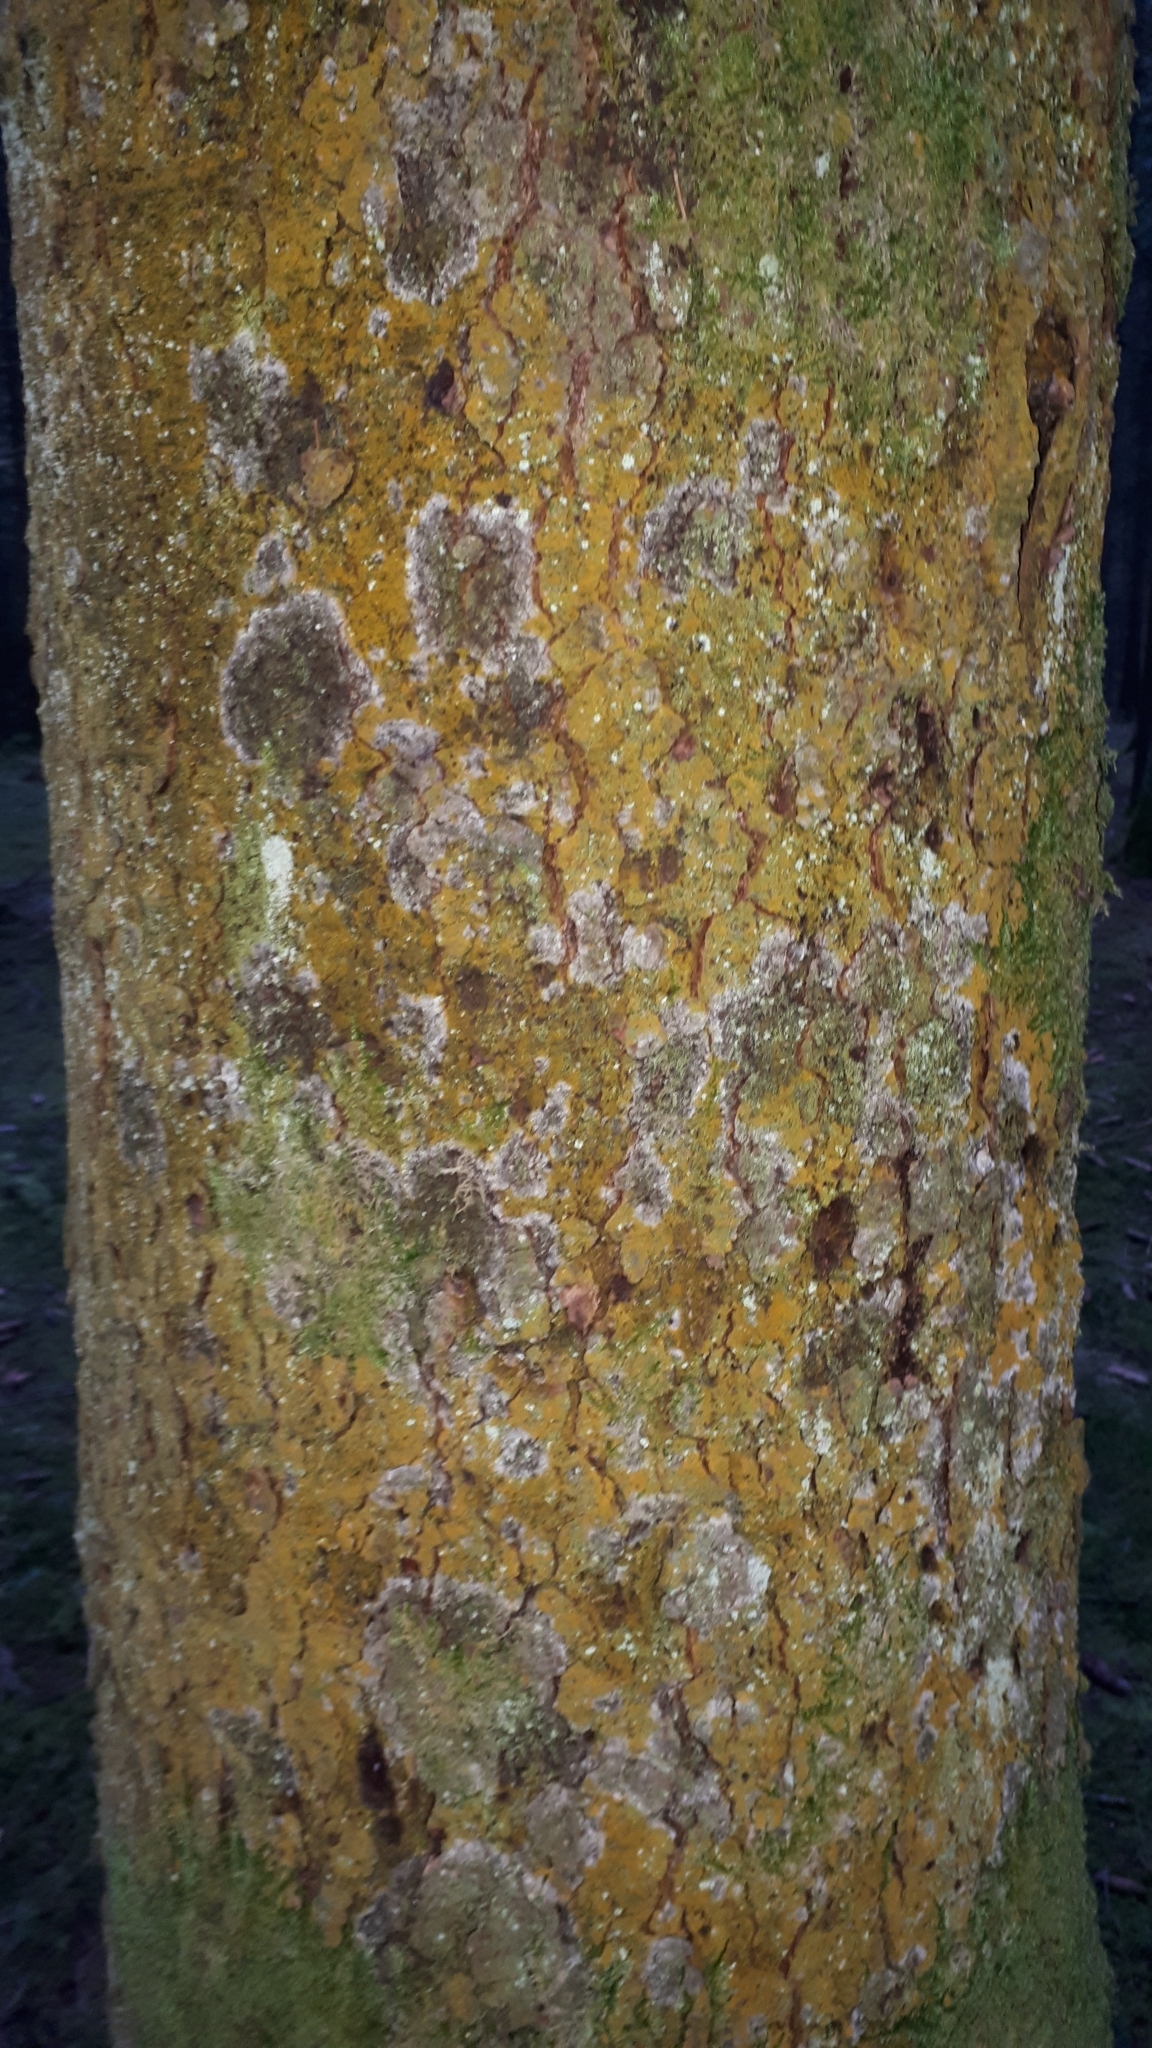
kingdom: Fungi
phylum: Basidiomycota
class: Agaricomycetes
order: Atheliales
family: Atheliaceae
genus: Athelia
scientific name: Athelia arachnoidea
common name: Candelabra duster
